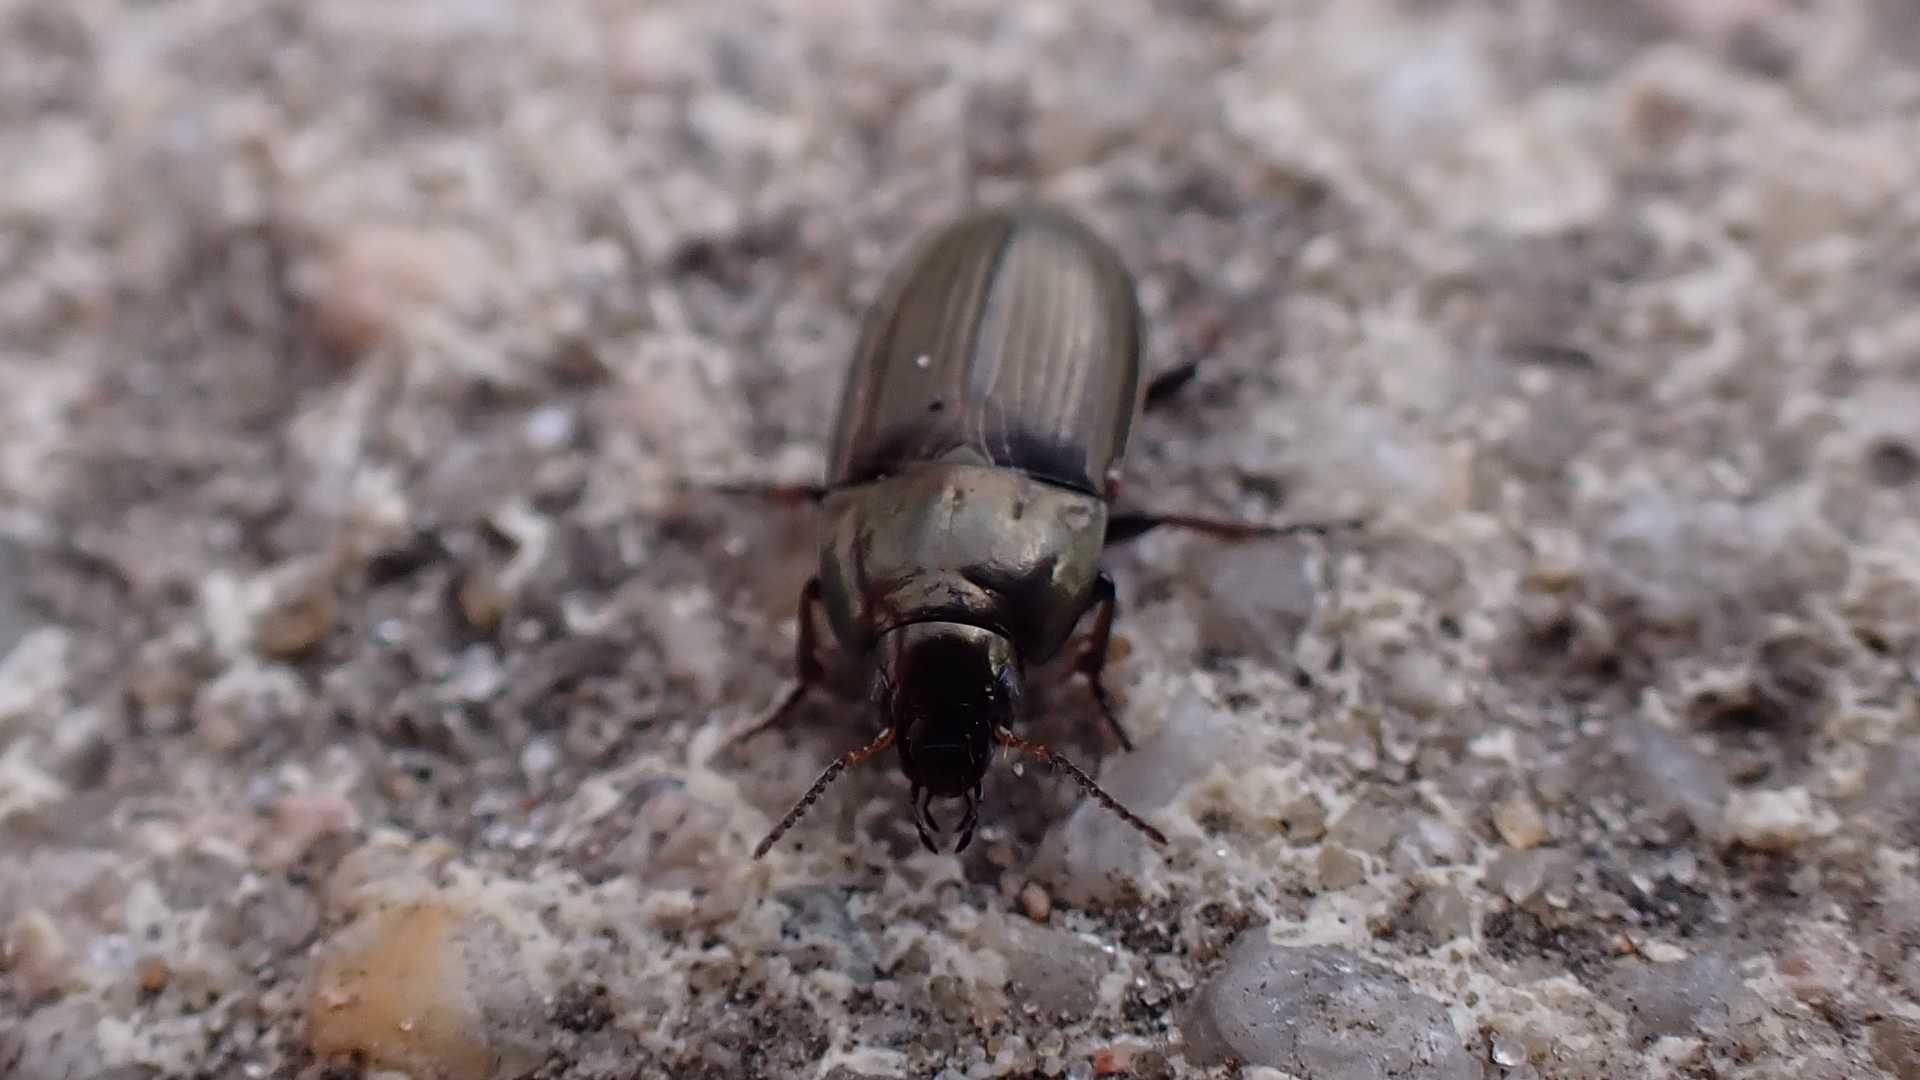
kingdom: Animalia
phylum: Arthropoda
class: Insecta
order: Coleoptera
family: Carabidae
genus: Amara
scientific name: Amara
